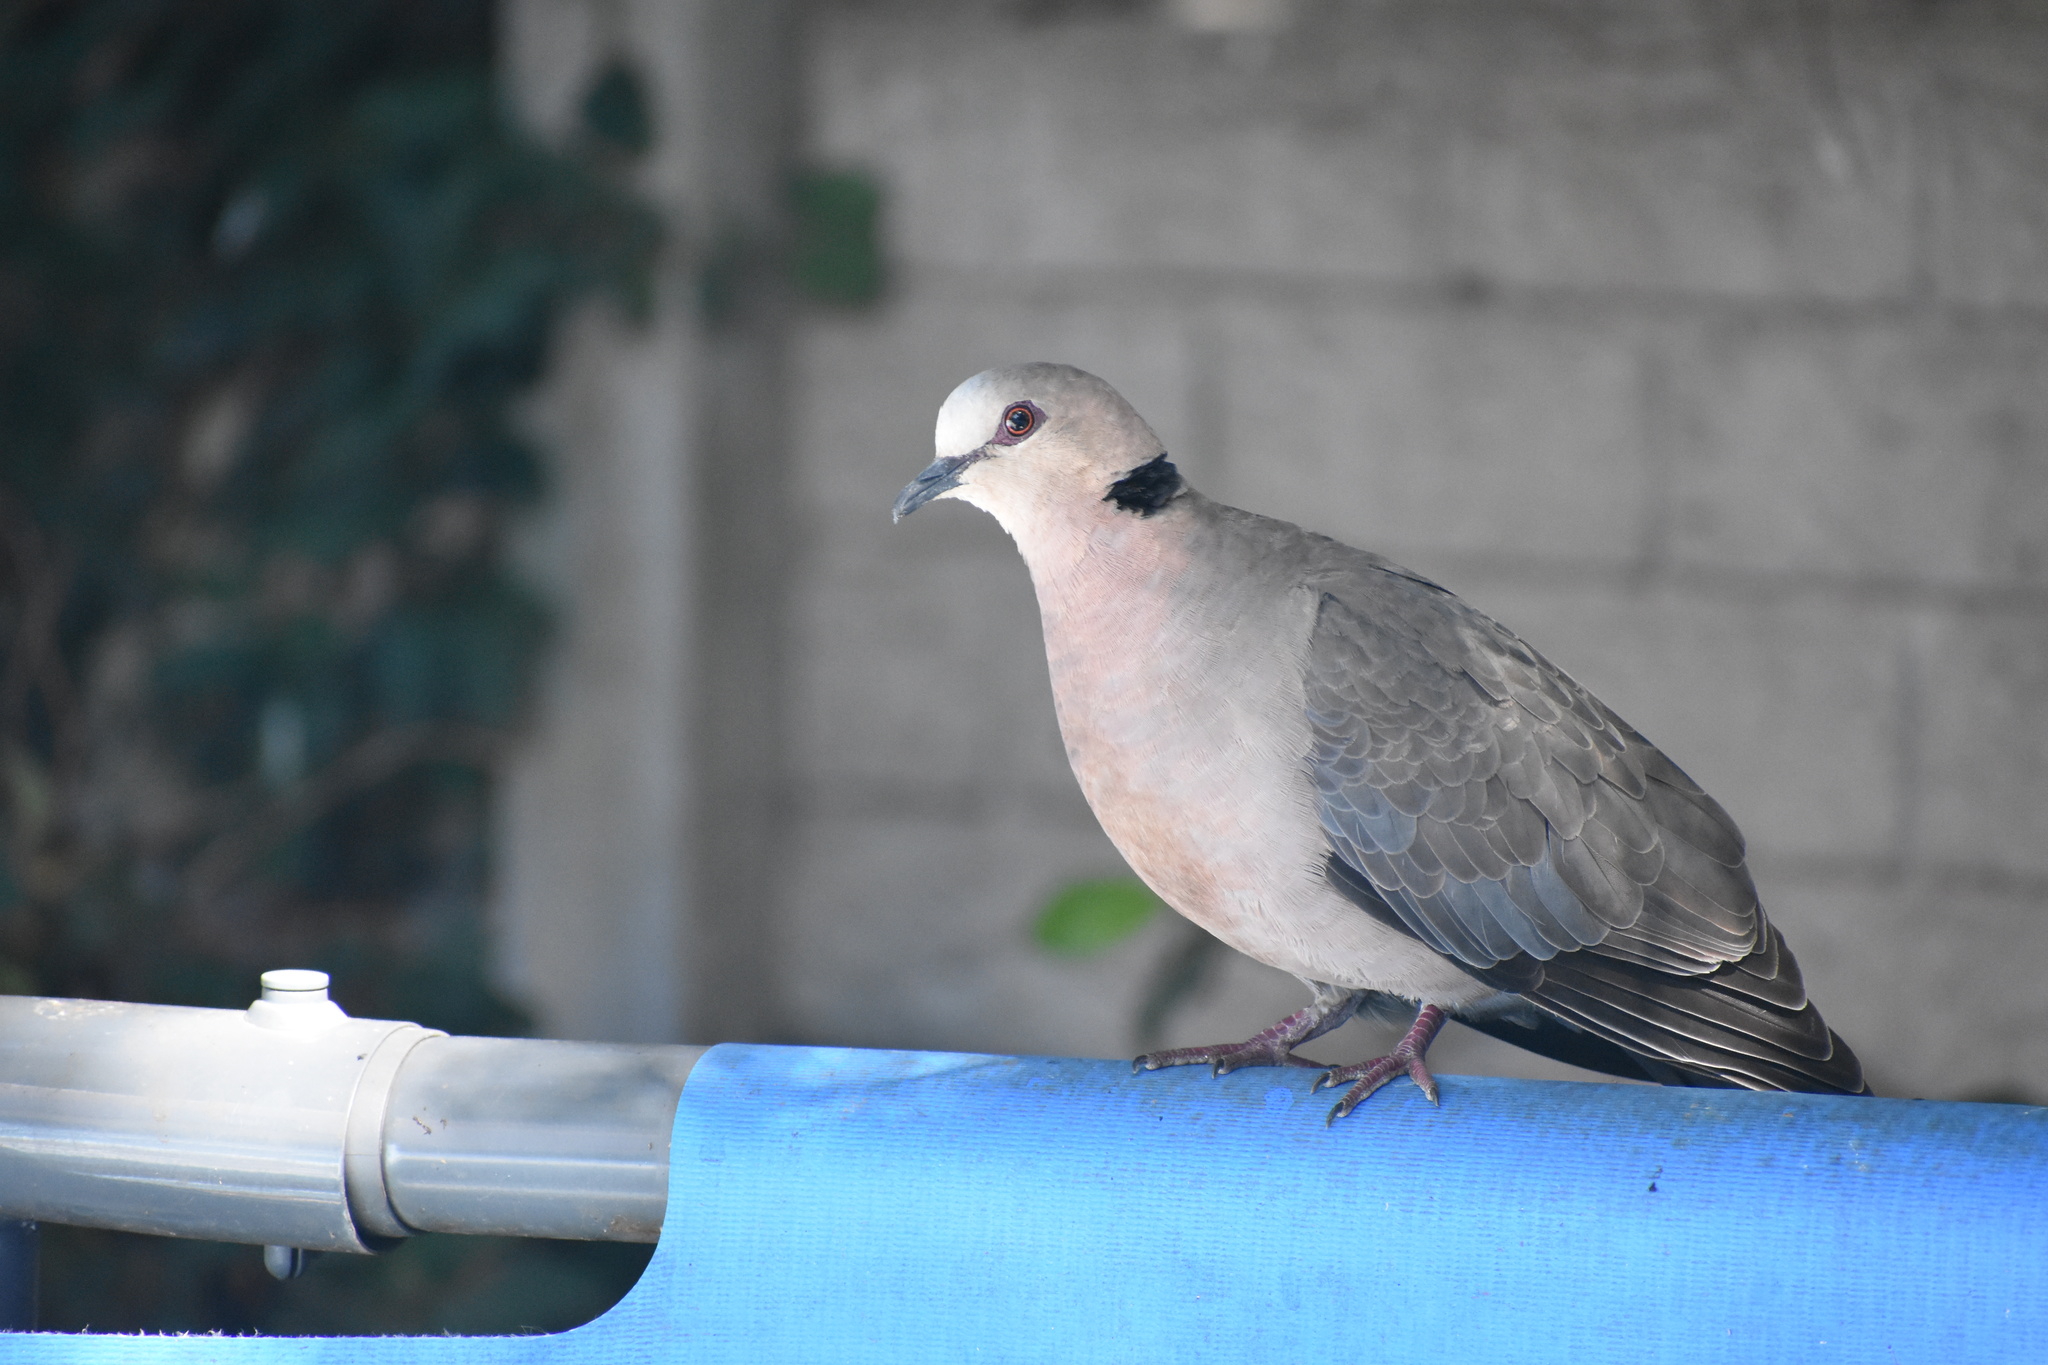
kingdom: Animalia
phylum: Chordata
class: Aves
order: Columbiformes
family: Columbidae
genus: Streptopelia
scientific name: Streptopelia semitorquata
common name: Red-eyed dove
